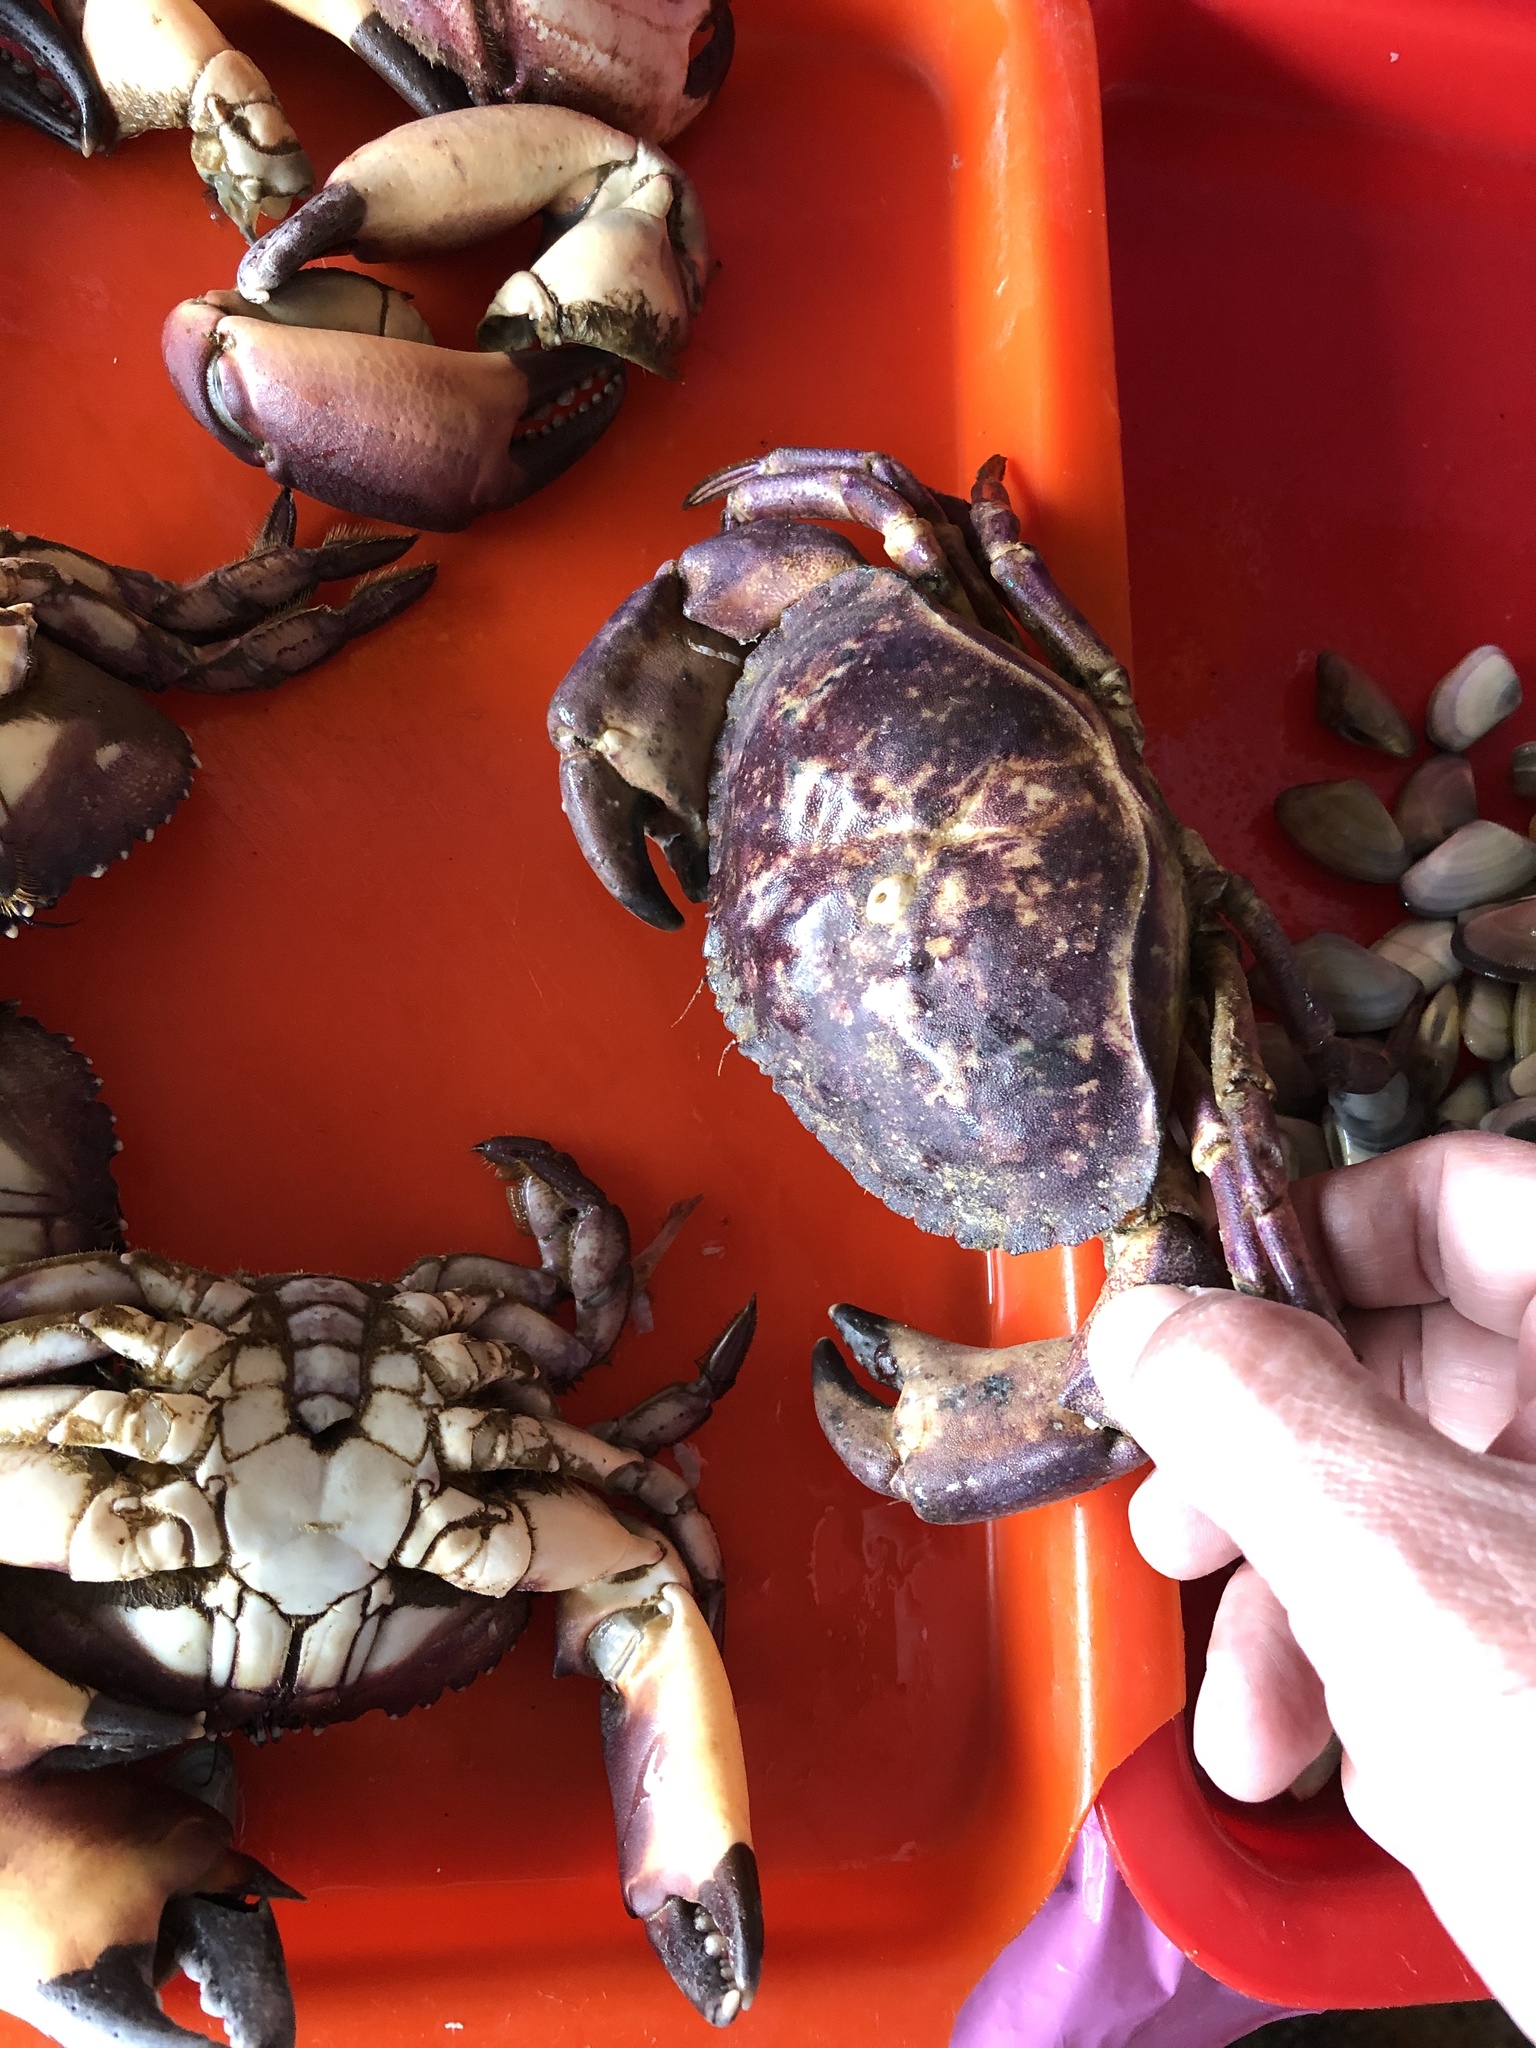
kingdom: Animalia
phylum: Arthropoda
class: Malacostraca
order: Decapoda
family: Cancridae
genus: Cancer
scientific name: Cancer porteri
